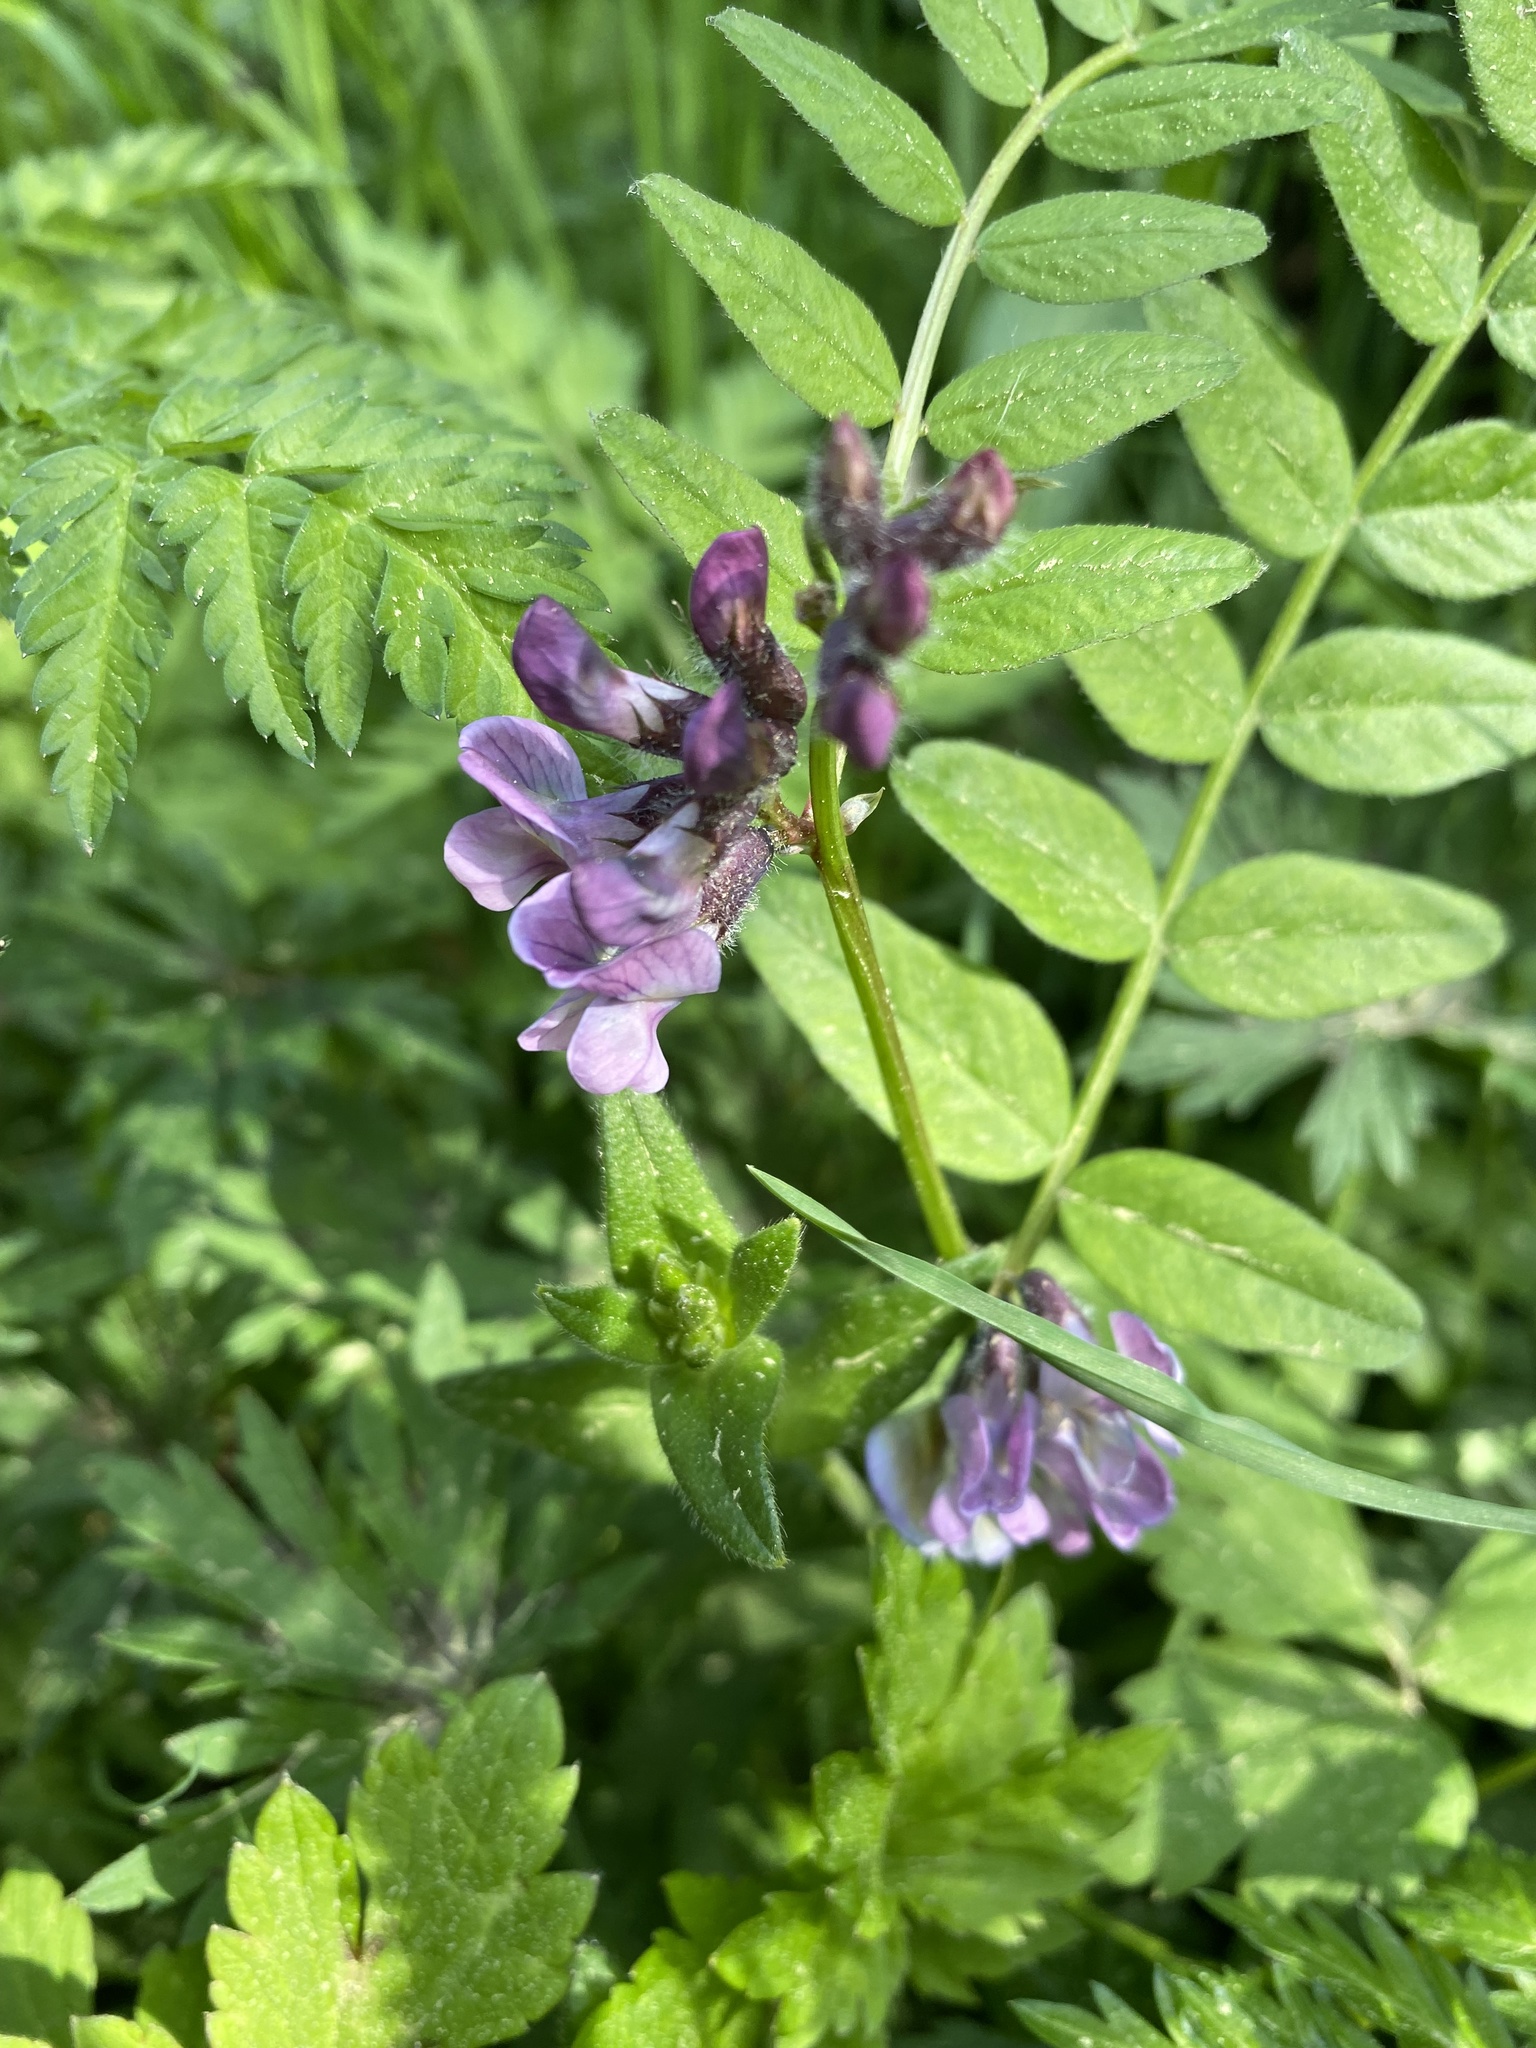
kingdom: Plantae
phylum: Tracheophyta
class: Magnoliopsida
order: Fabales
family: Fabaceae
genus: Vicia
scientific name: Vicia sepium
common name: Bush vetch
